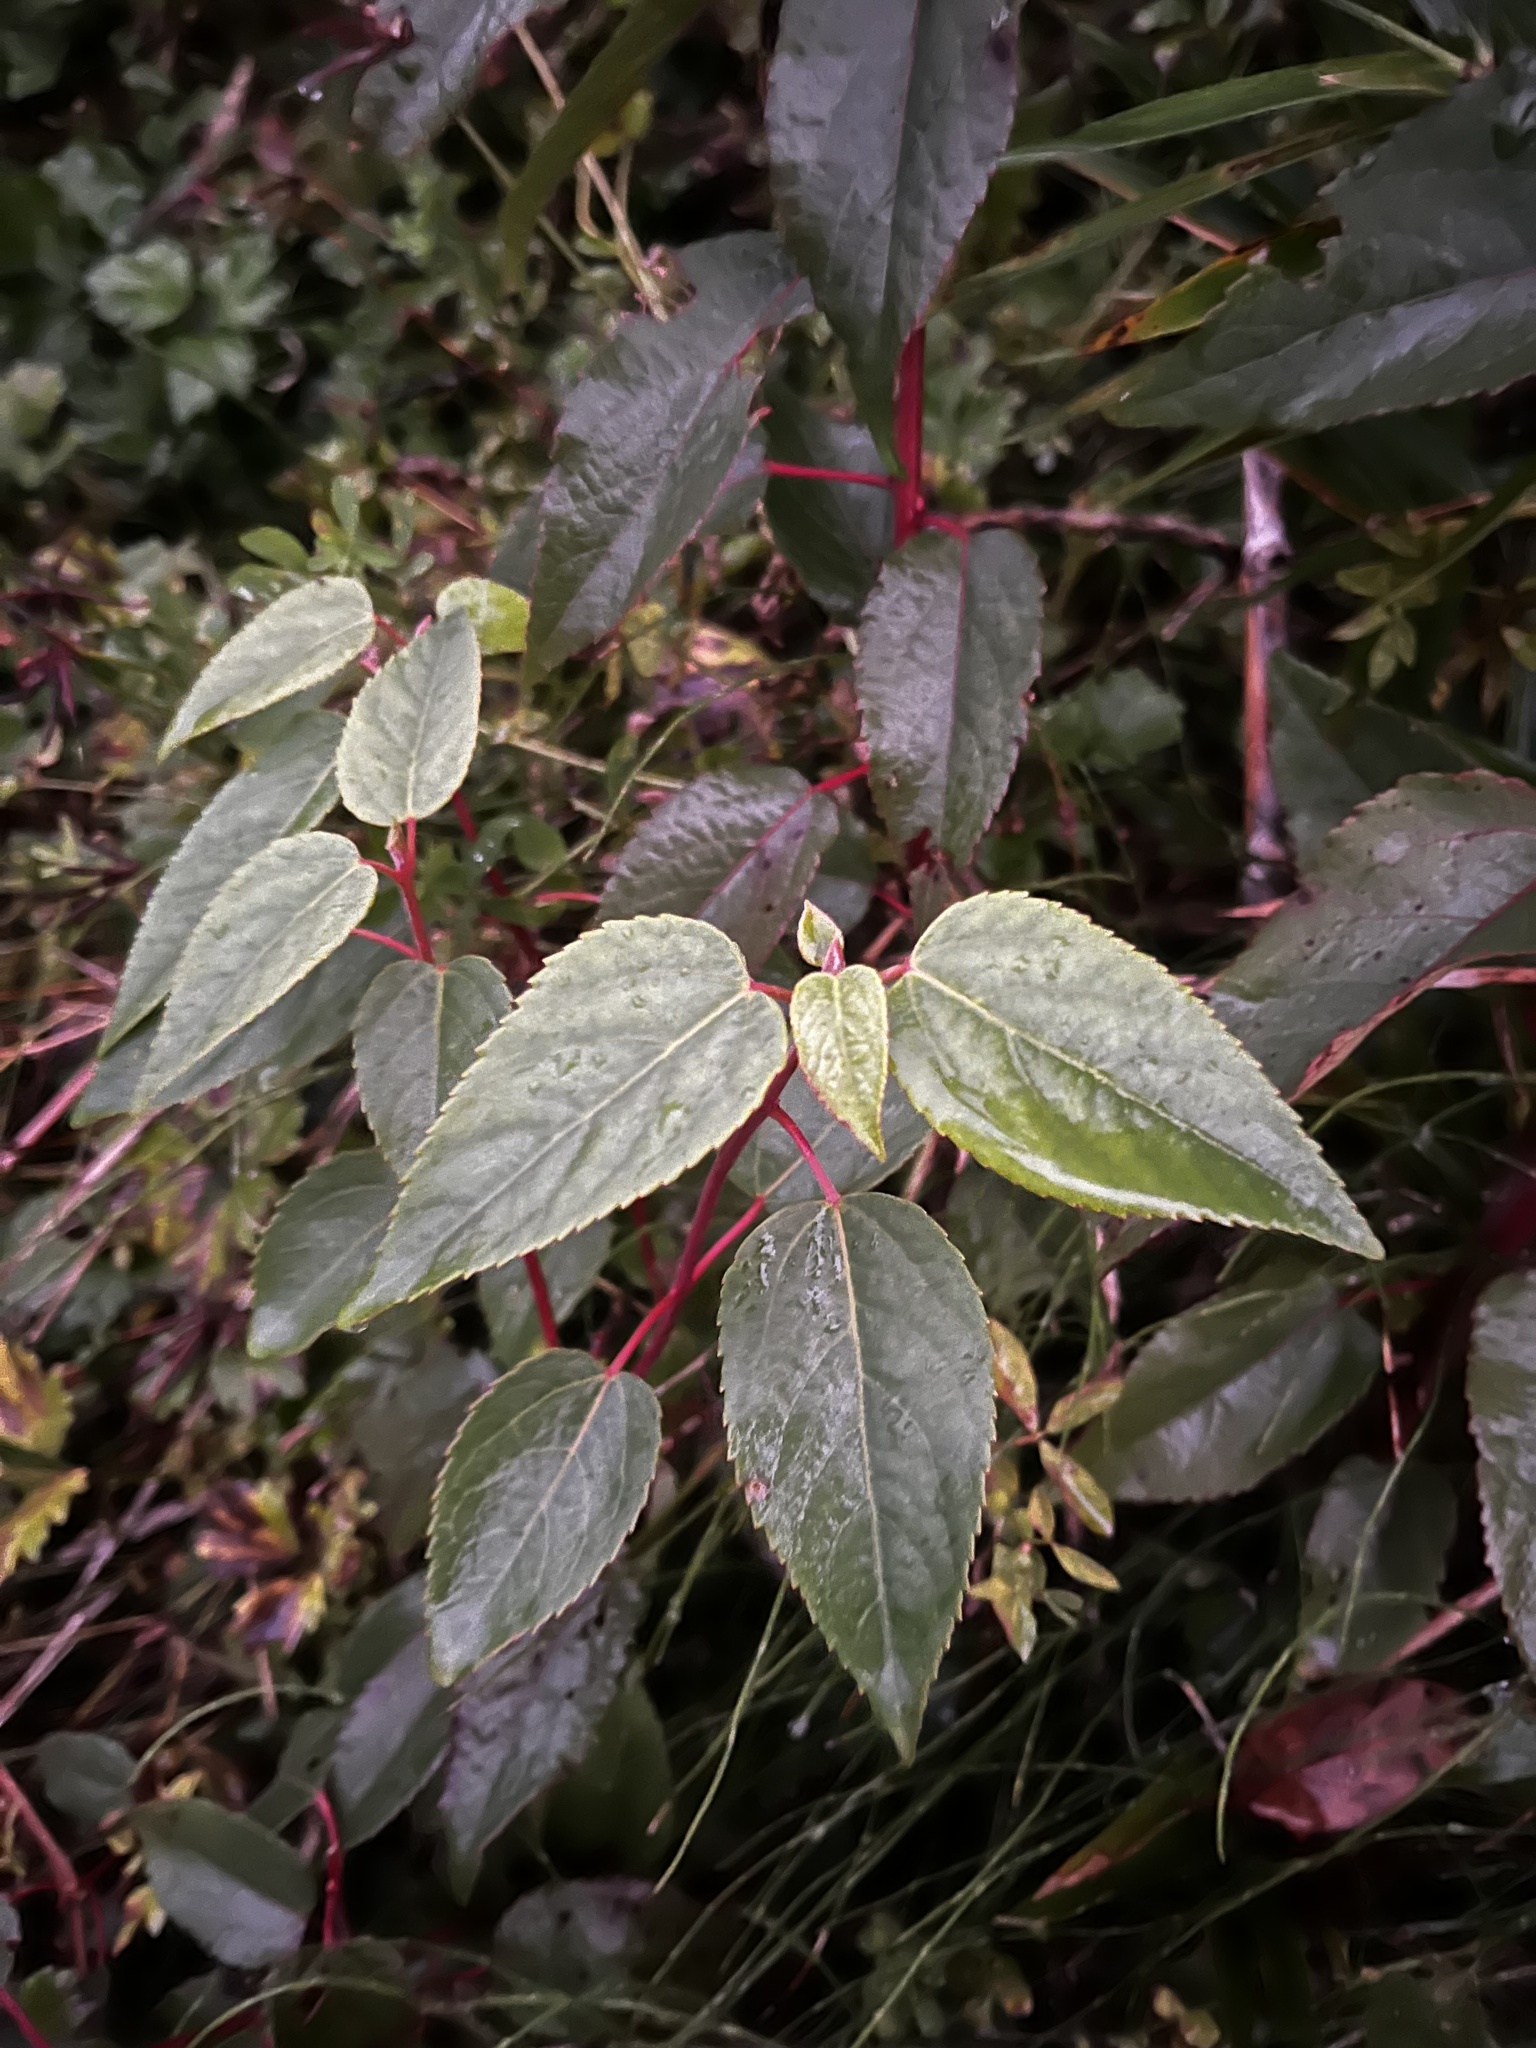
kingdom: Plantae
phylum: Tracheophyta
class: Magnoliopsida
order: Oxalidales
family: Elaeocarpaceae
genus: Aristotelia
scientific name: Aristotelia chilensis
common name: Maquei
